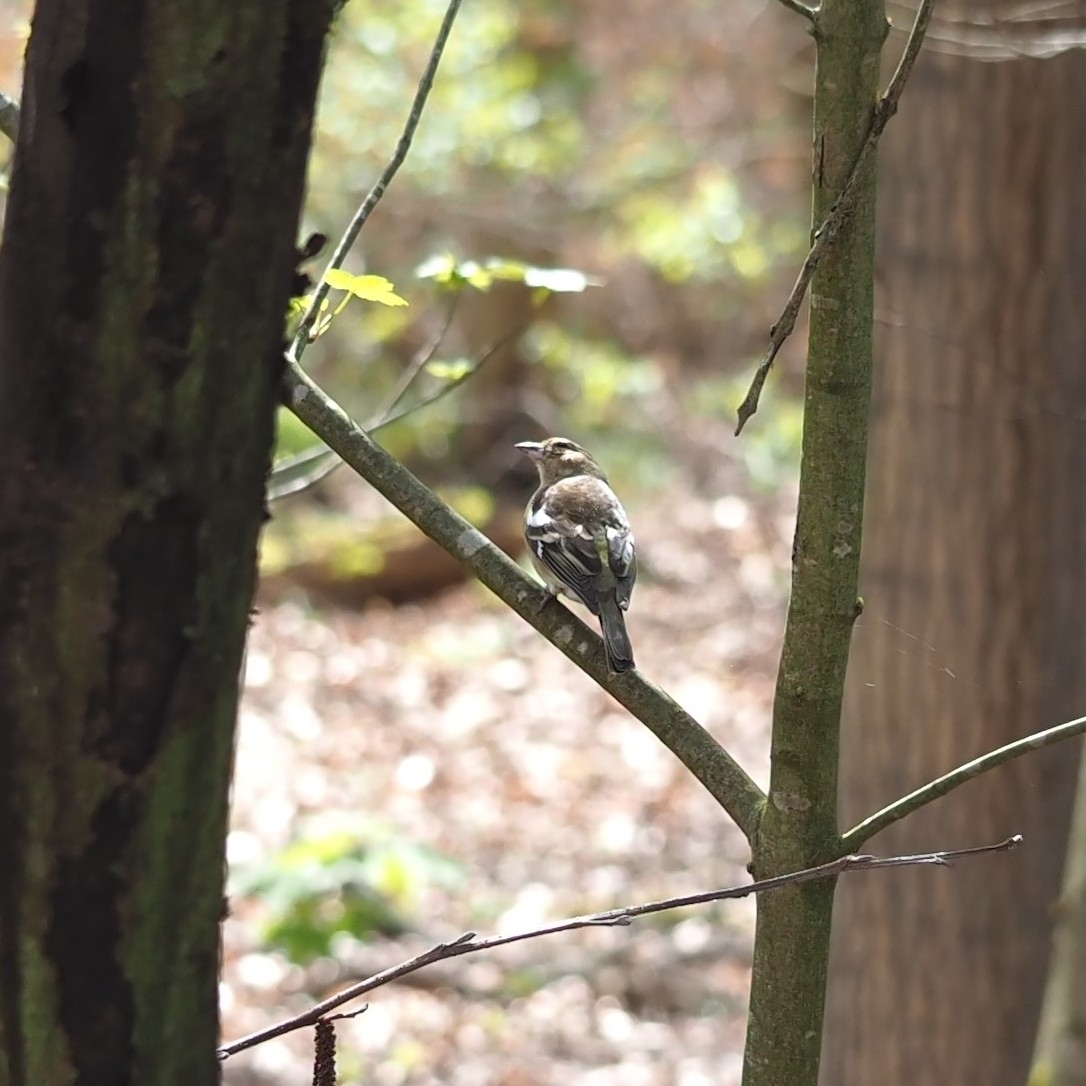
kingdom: Animalia
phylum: Chordata
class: Aves
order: Passeriformes
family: Fringillidae
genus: Fringilla
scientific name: Fringilla coelebs
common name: Common chaffinch
